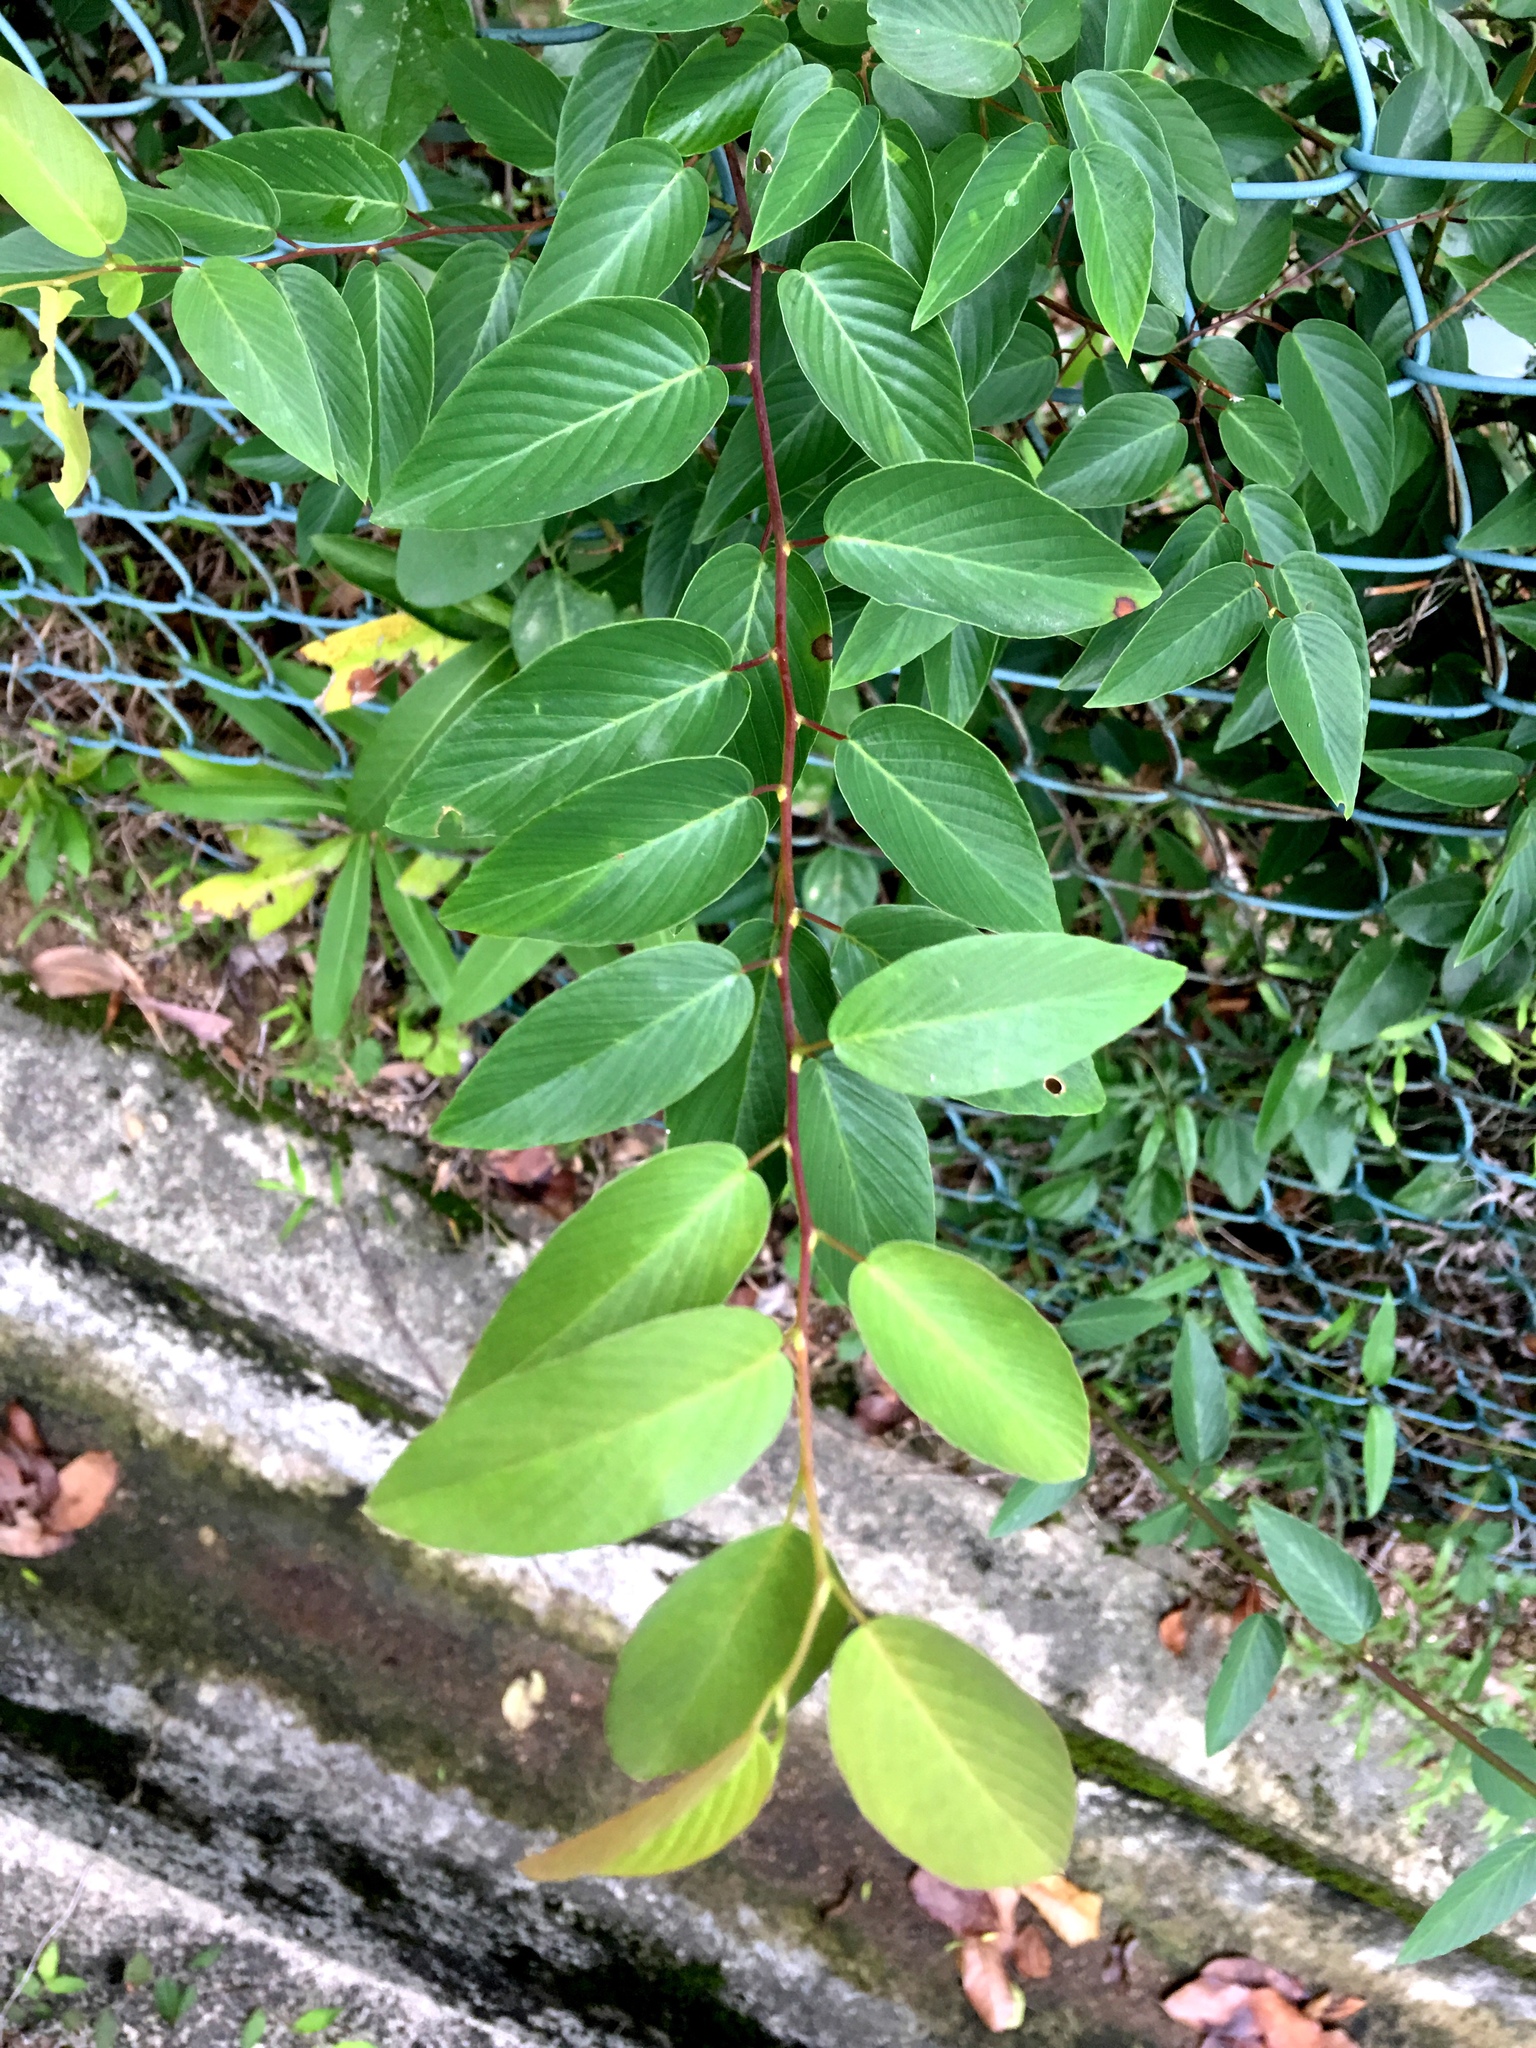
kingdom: Plantae
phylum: Tracheophyta
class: Magnoliopsida
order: Rosales
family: Rhamnaceae
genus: Berchemia
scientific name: Berchemia floribunda
